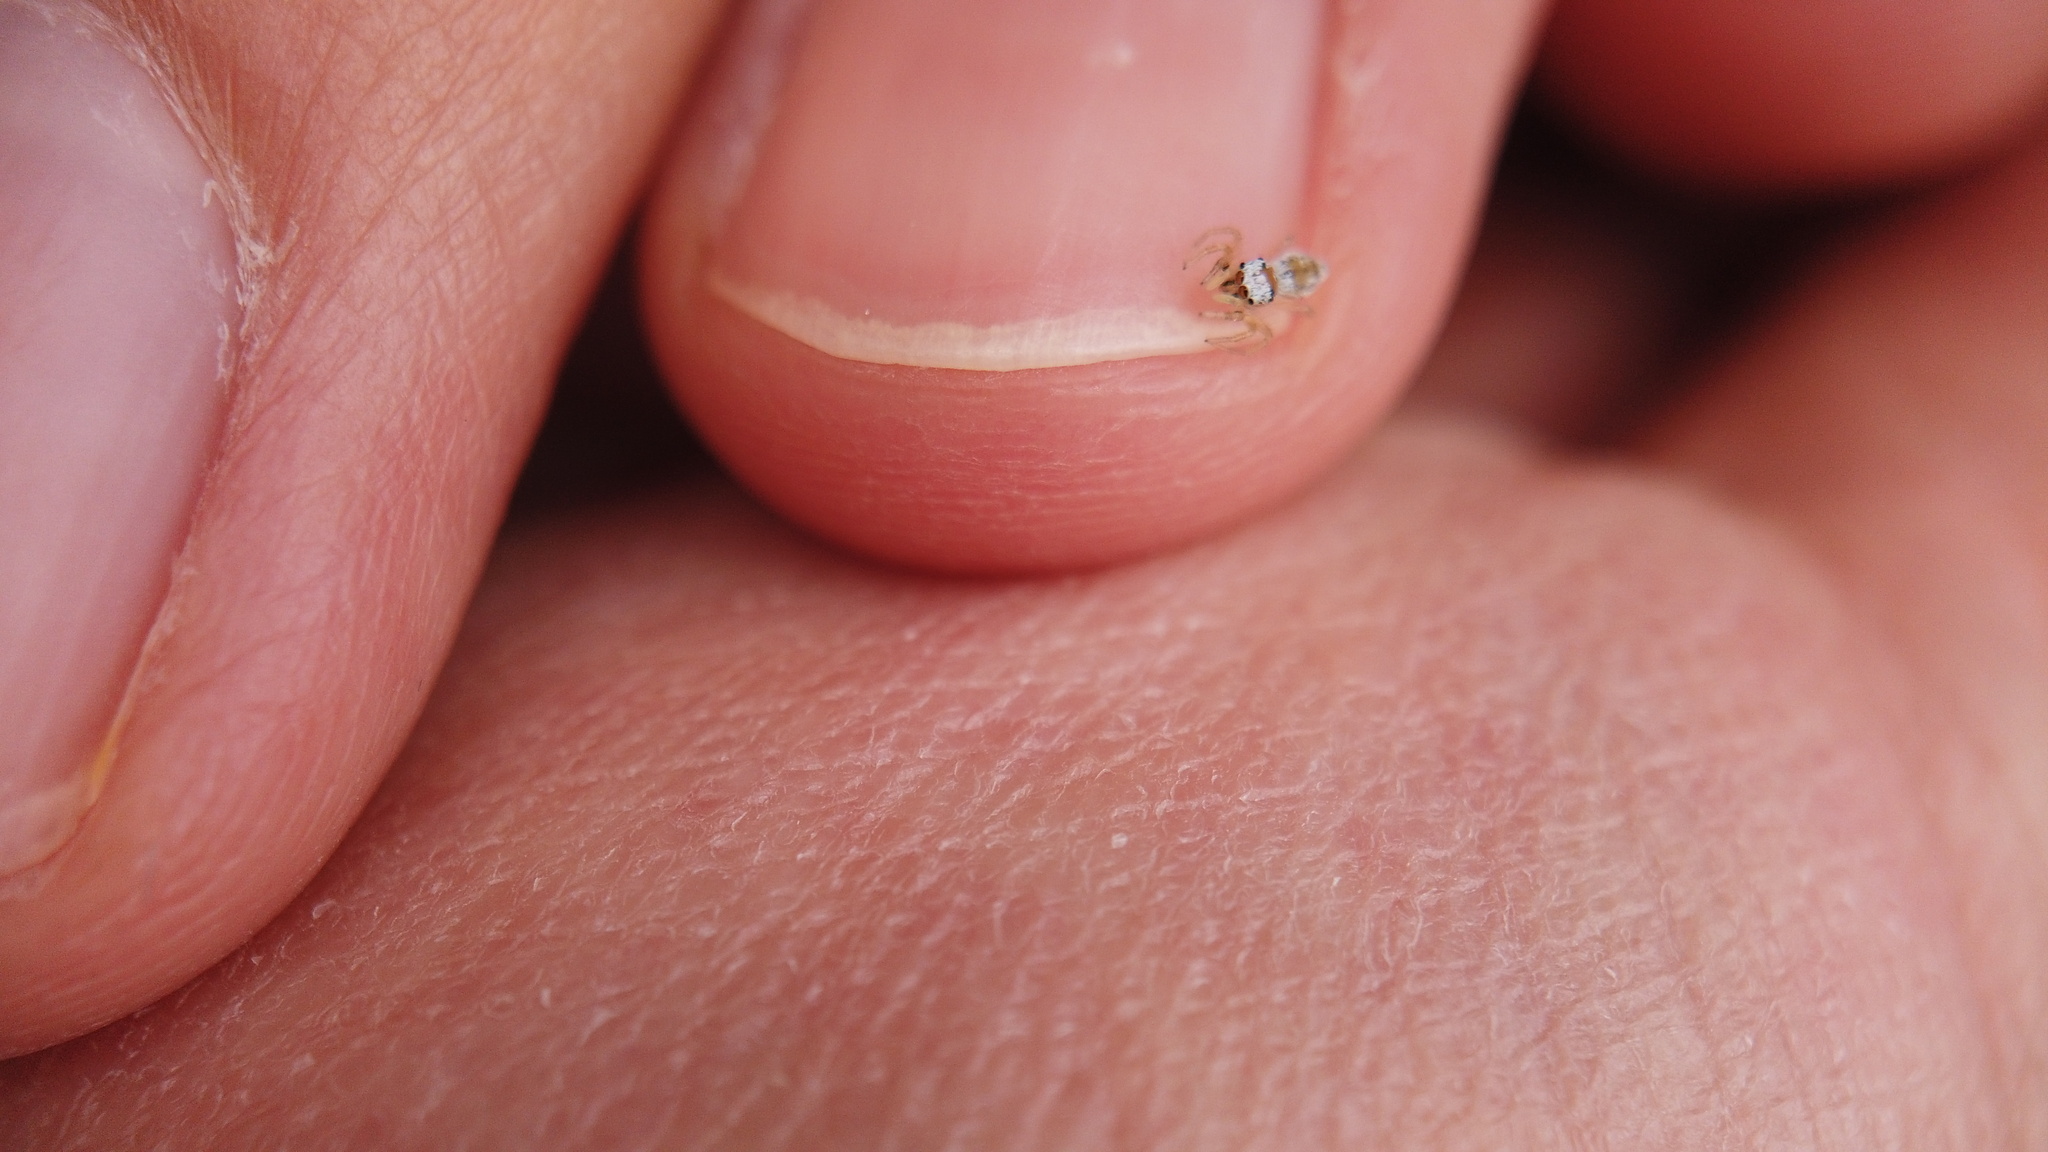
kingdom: Animalia
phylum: Arthropoda
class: Arachnida
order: Araneae
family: Salticidae
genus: Phintella
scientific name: Phintella linea
